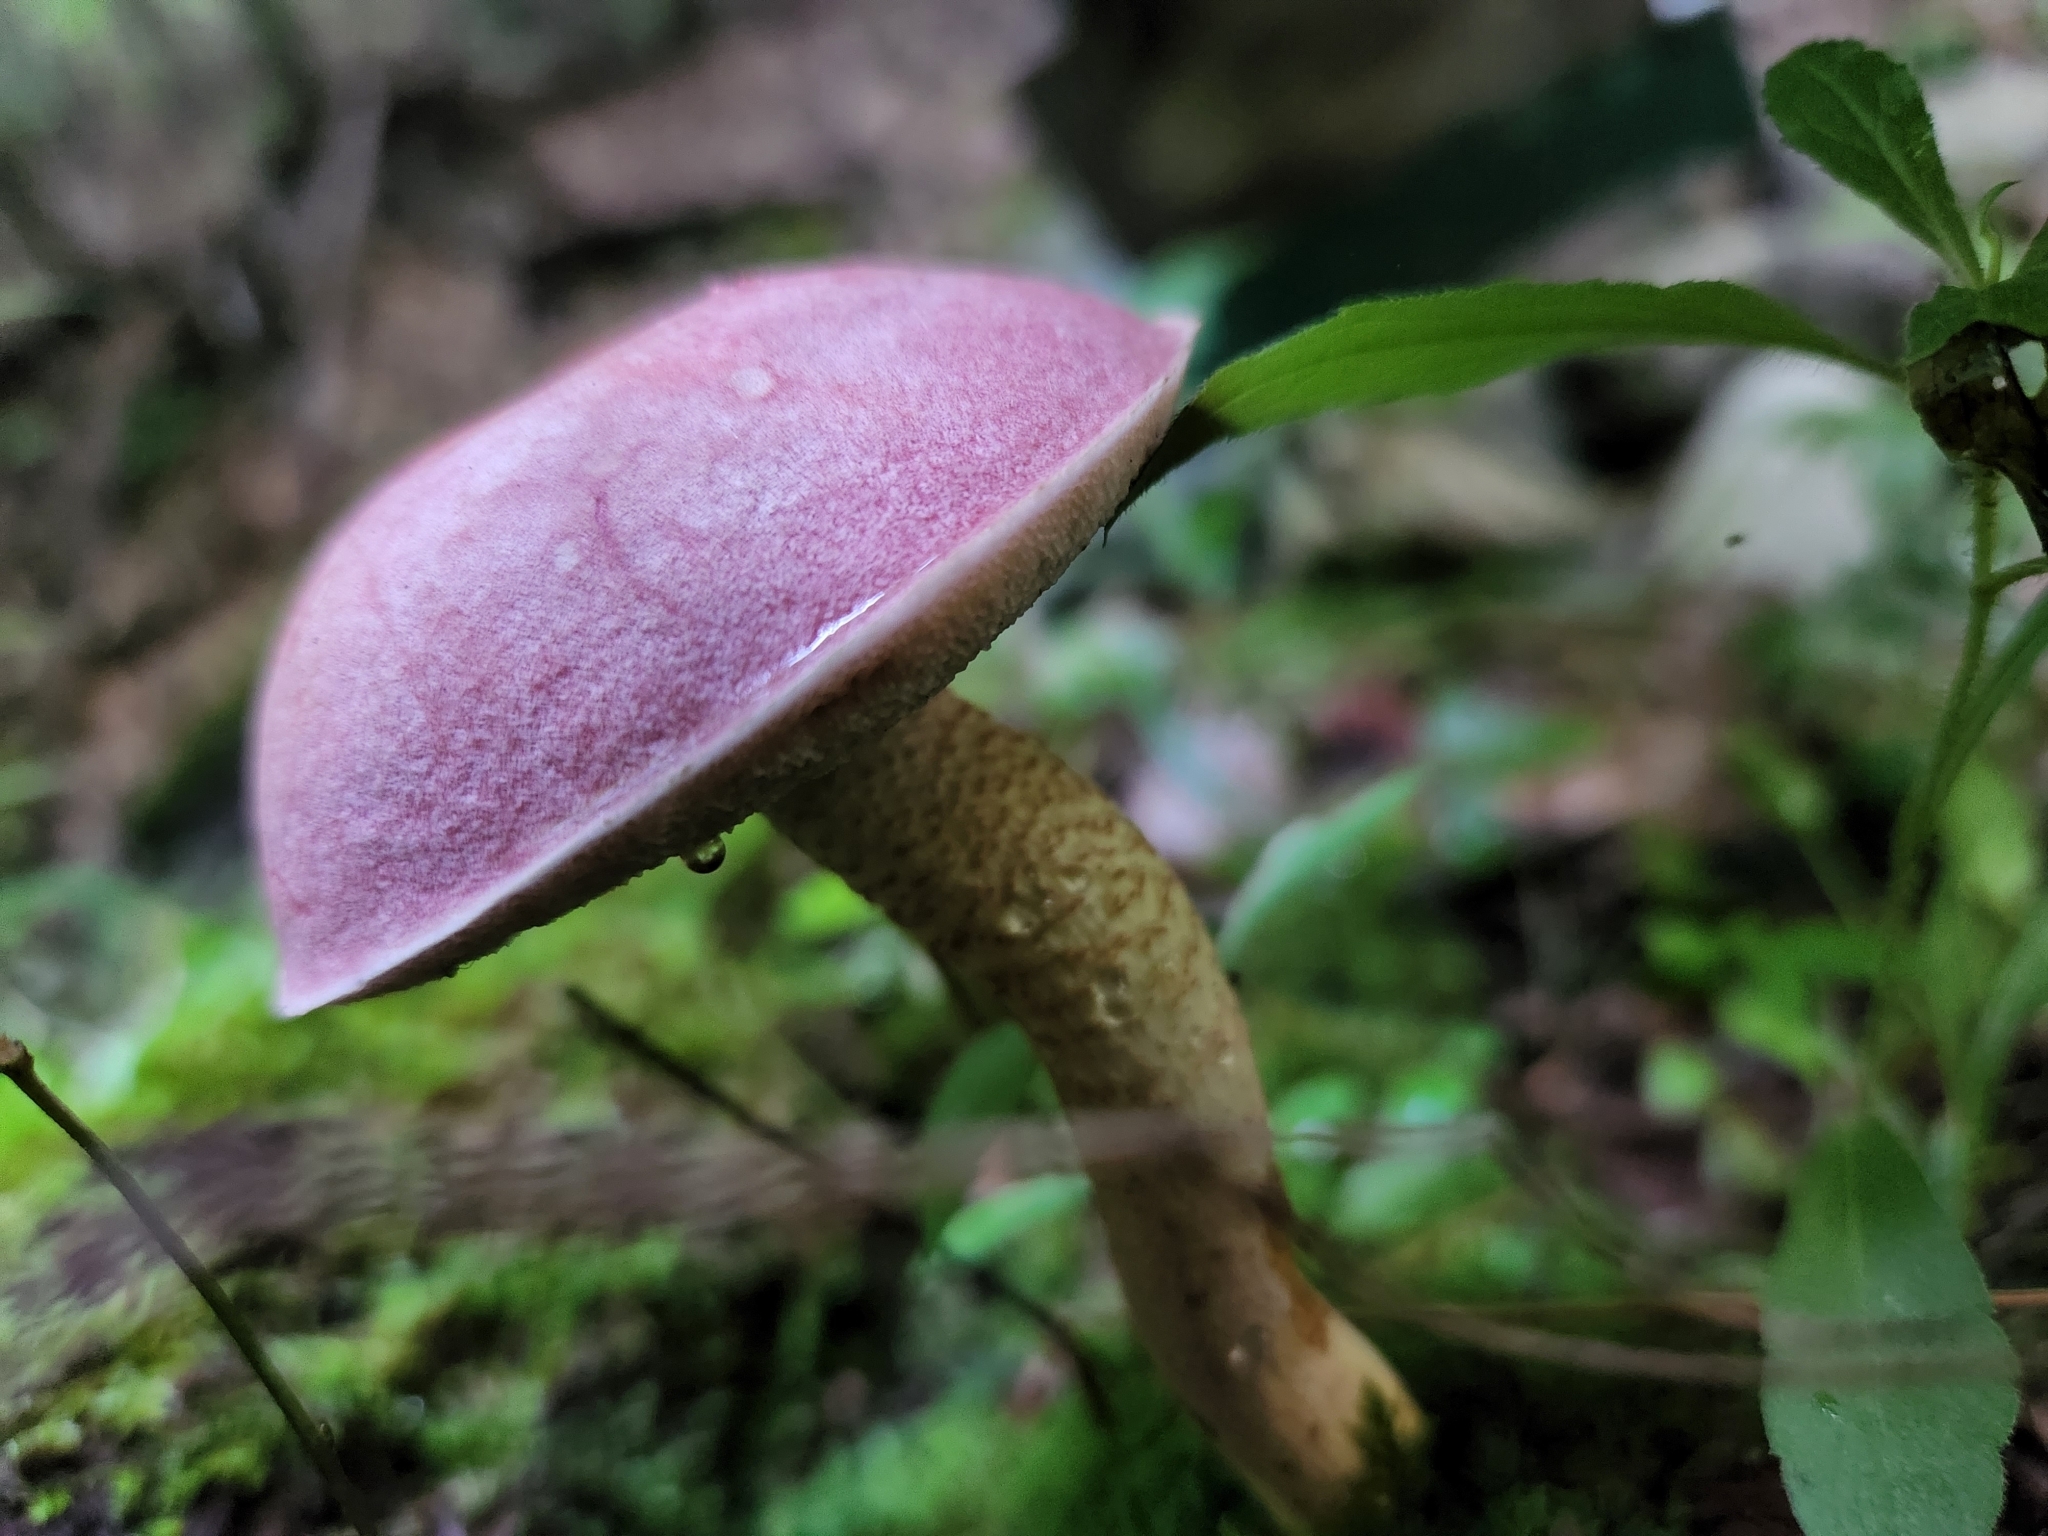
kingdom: Fungi
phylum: Basidiomycota
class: Agaricomycetes
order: Boletales
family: Boletaceae
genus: Harrya
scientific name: Harrya chromipes
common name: Chrome-footed bolete
